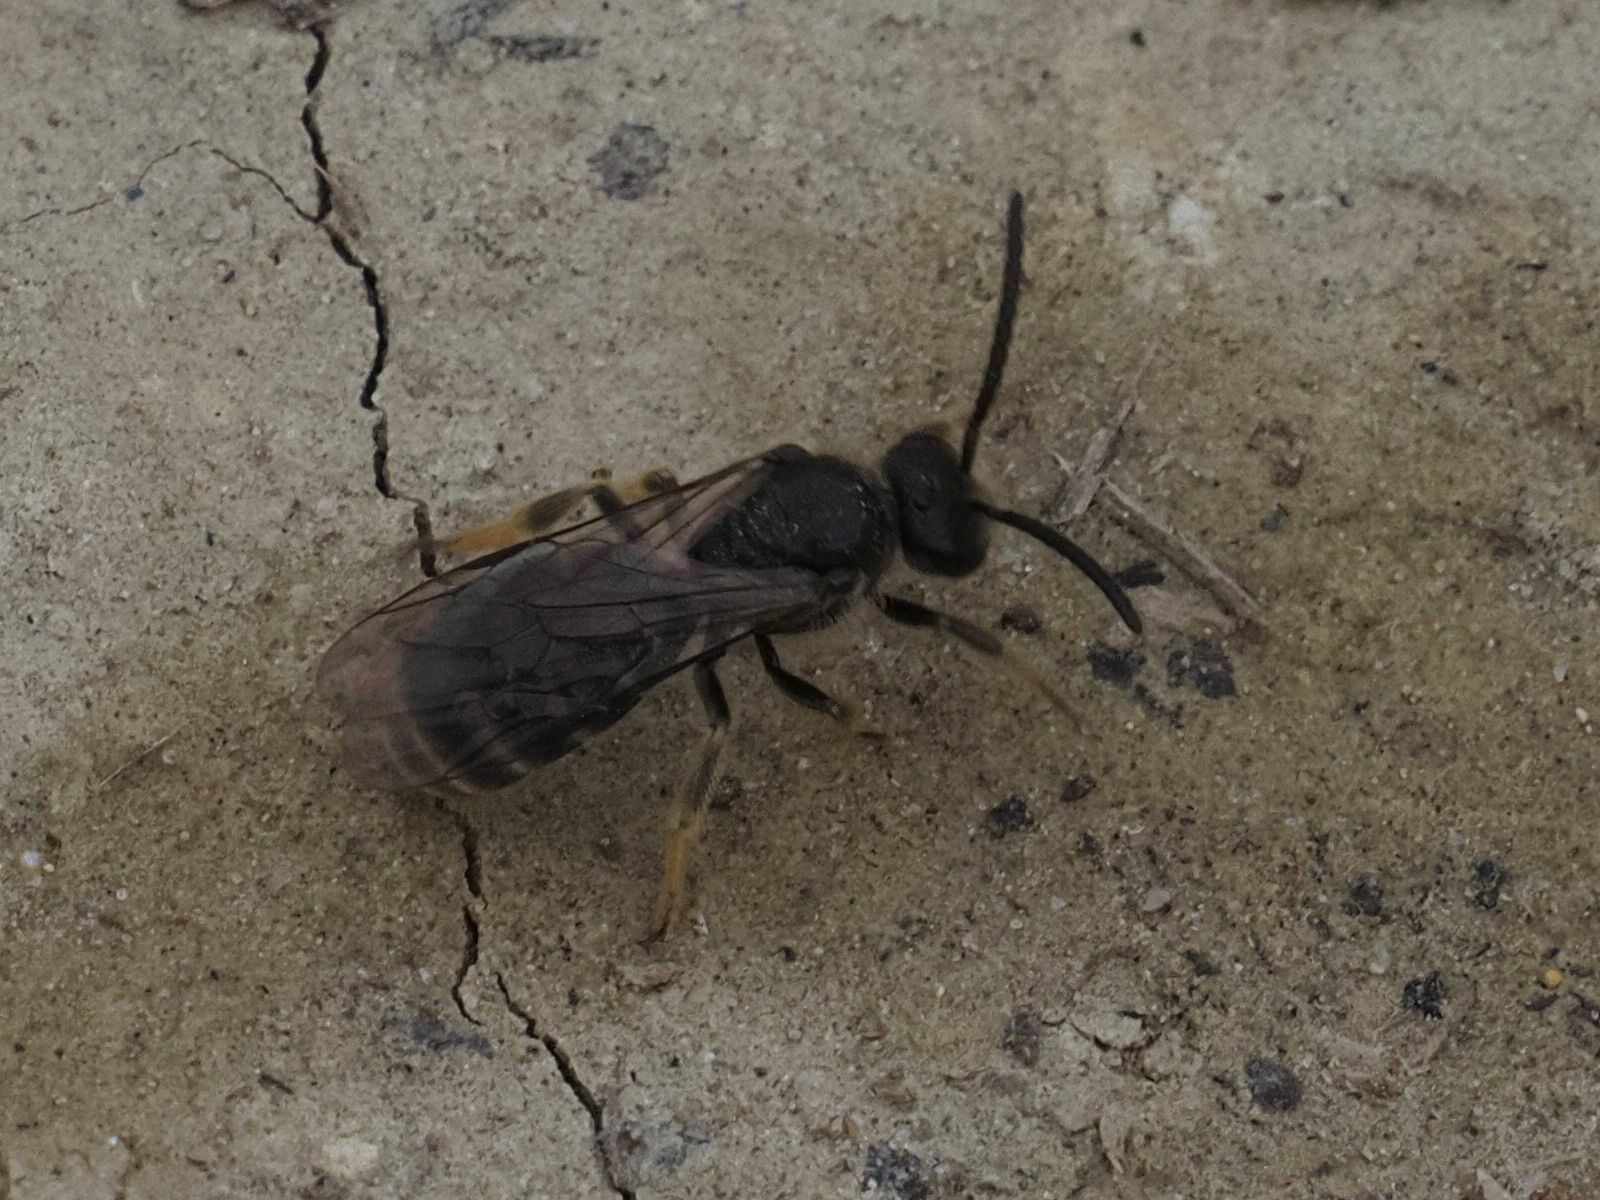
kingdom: Animalia
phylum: Arthropoda
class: Insecta
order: Hymenoptera
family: Halictidae
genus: Lasioglossum
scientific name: Lasioglossum marginatum
